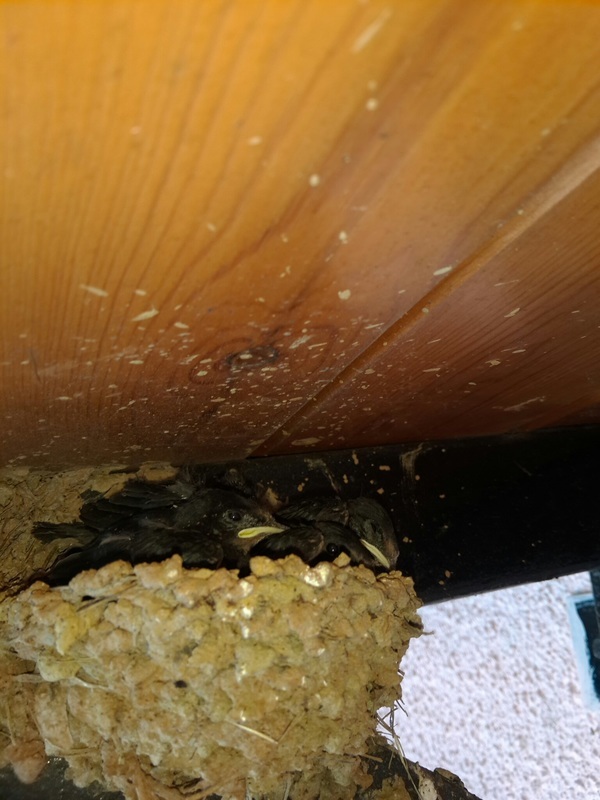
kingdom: Animalia
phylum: Chordata
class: Aves
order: Passeriformes
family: Hirundinidae
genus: Hirundo
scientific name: Hirundo rustica
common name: Barn swallow
